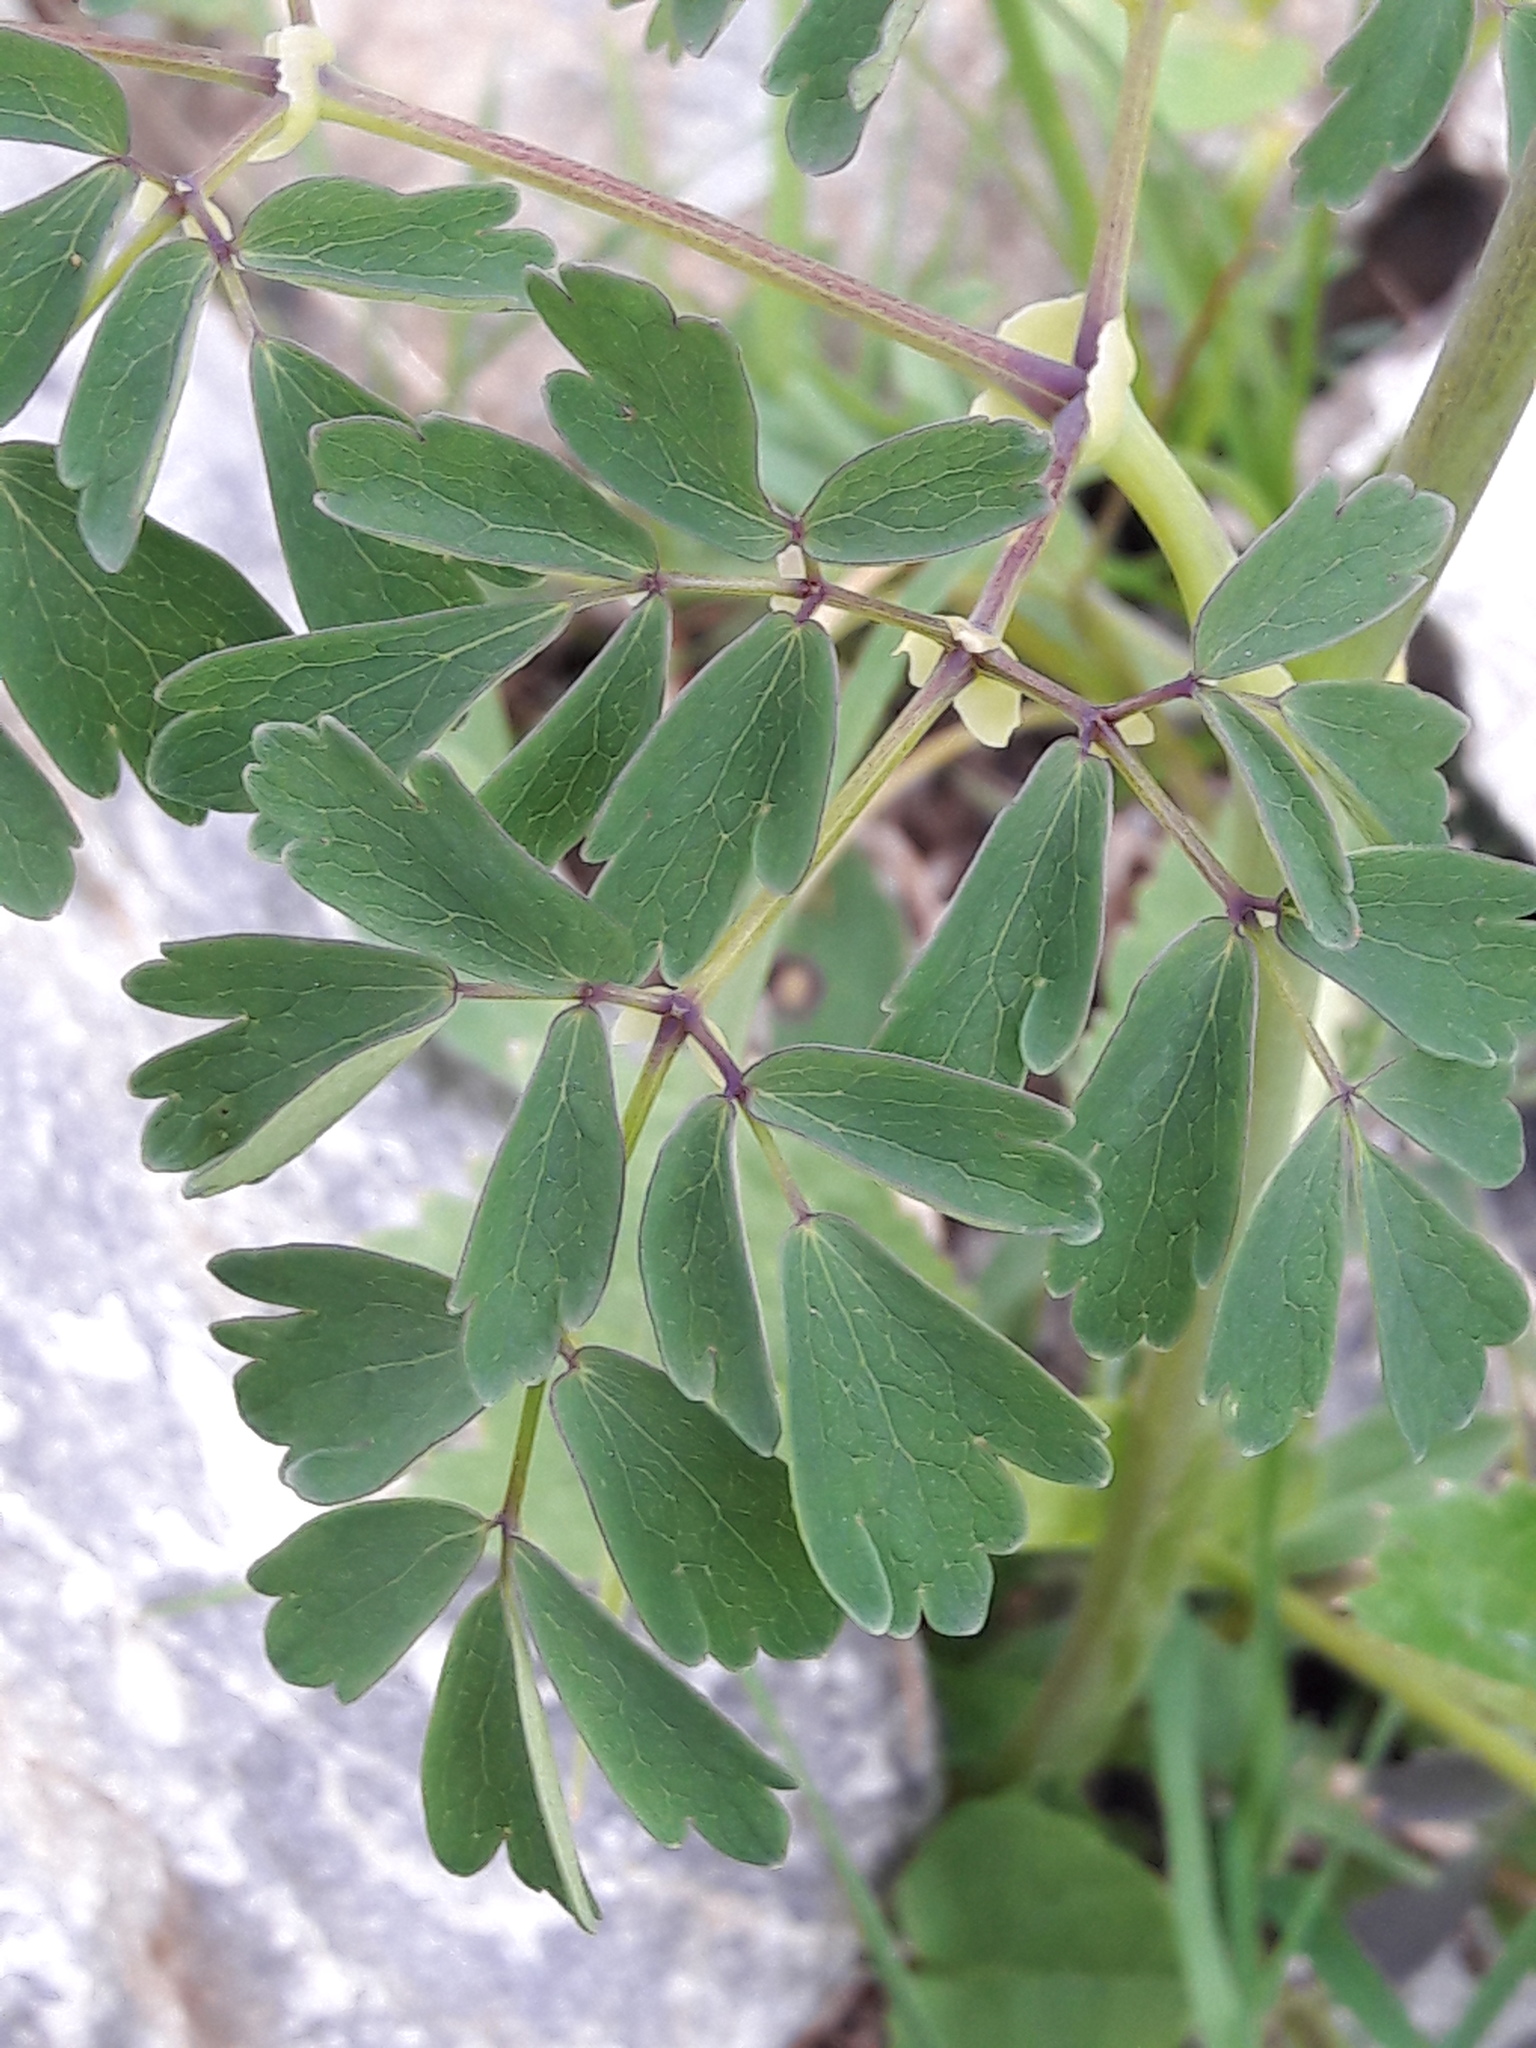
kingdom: Plantae
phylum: Tracheophyta
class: Magnoliopsida
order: Ranunculales
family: Ranunculaceae
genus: Thalictrum
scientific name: Thalictrum aquilegiifolium
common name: French meadow-rue
